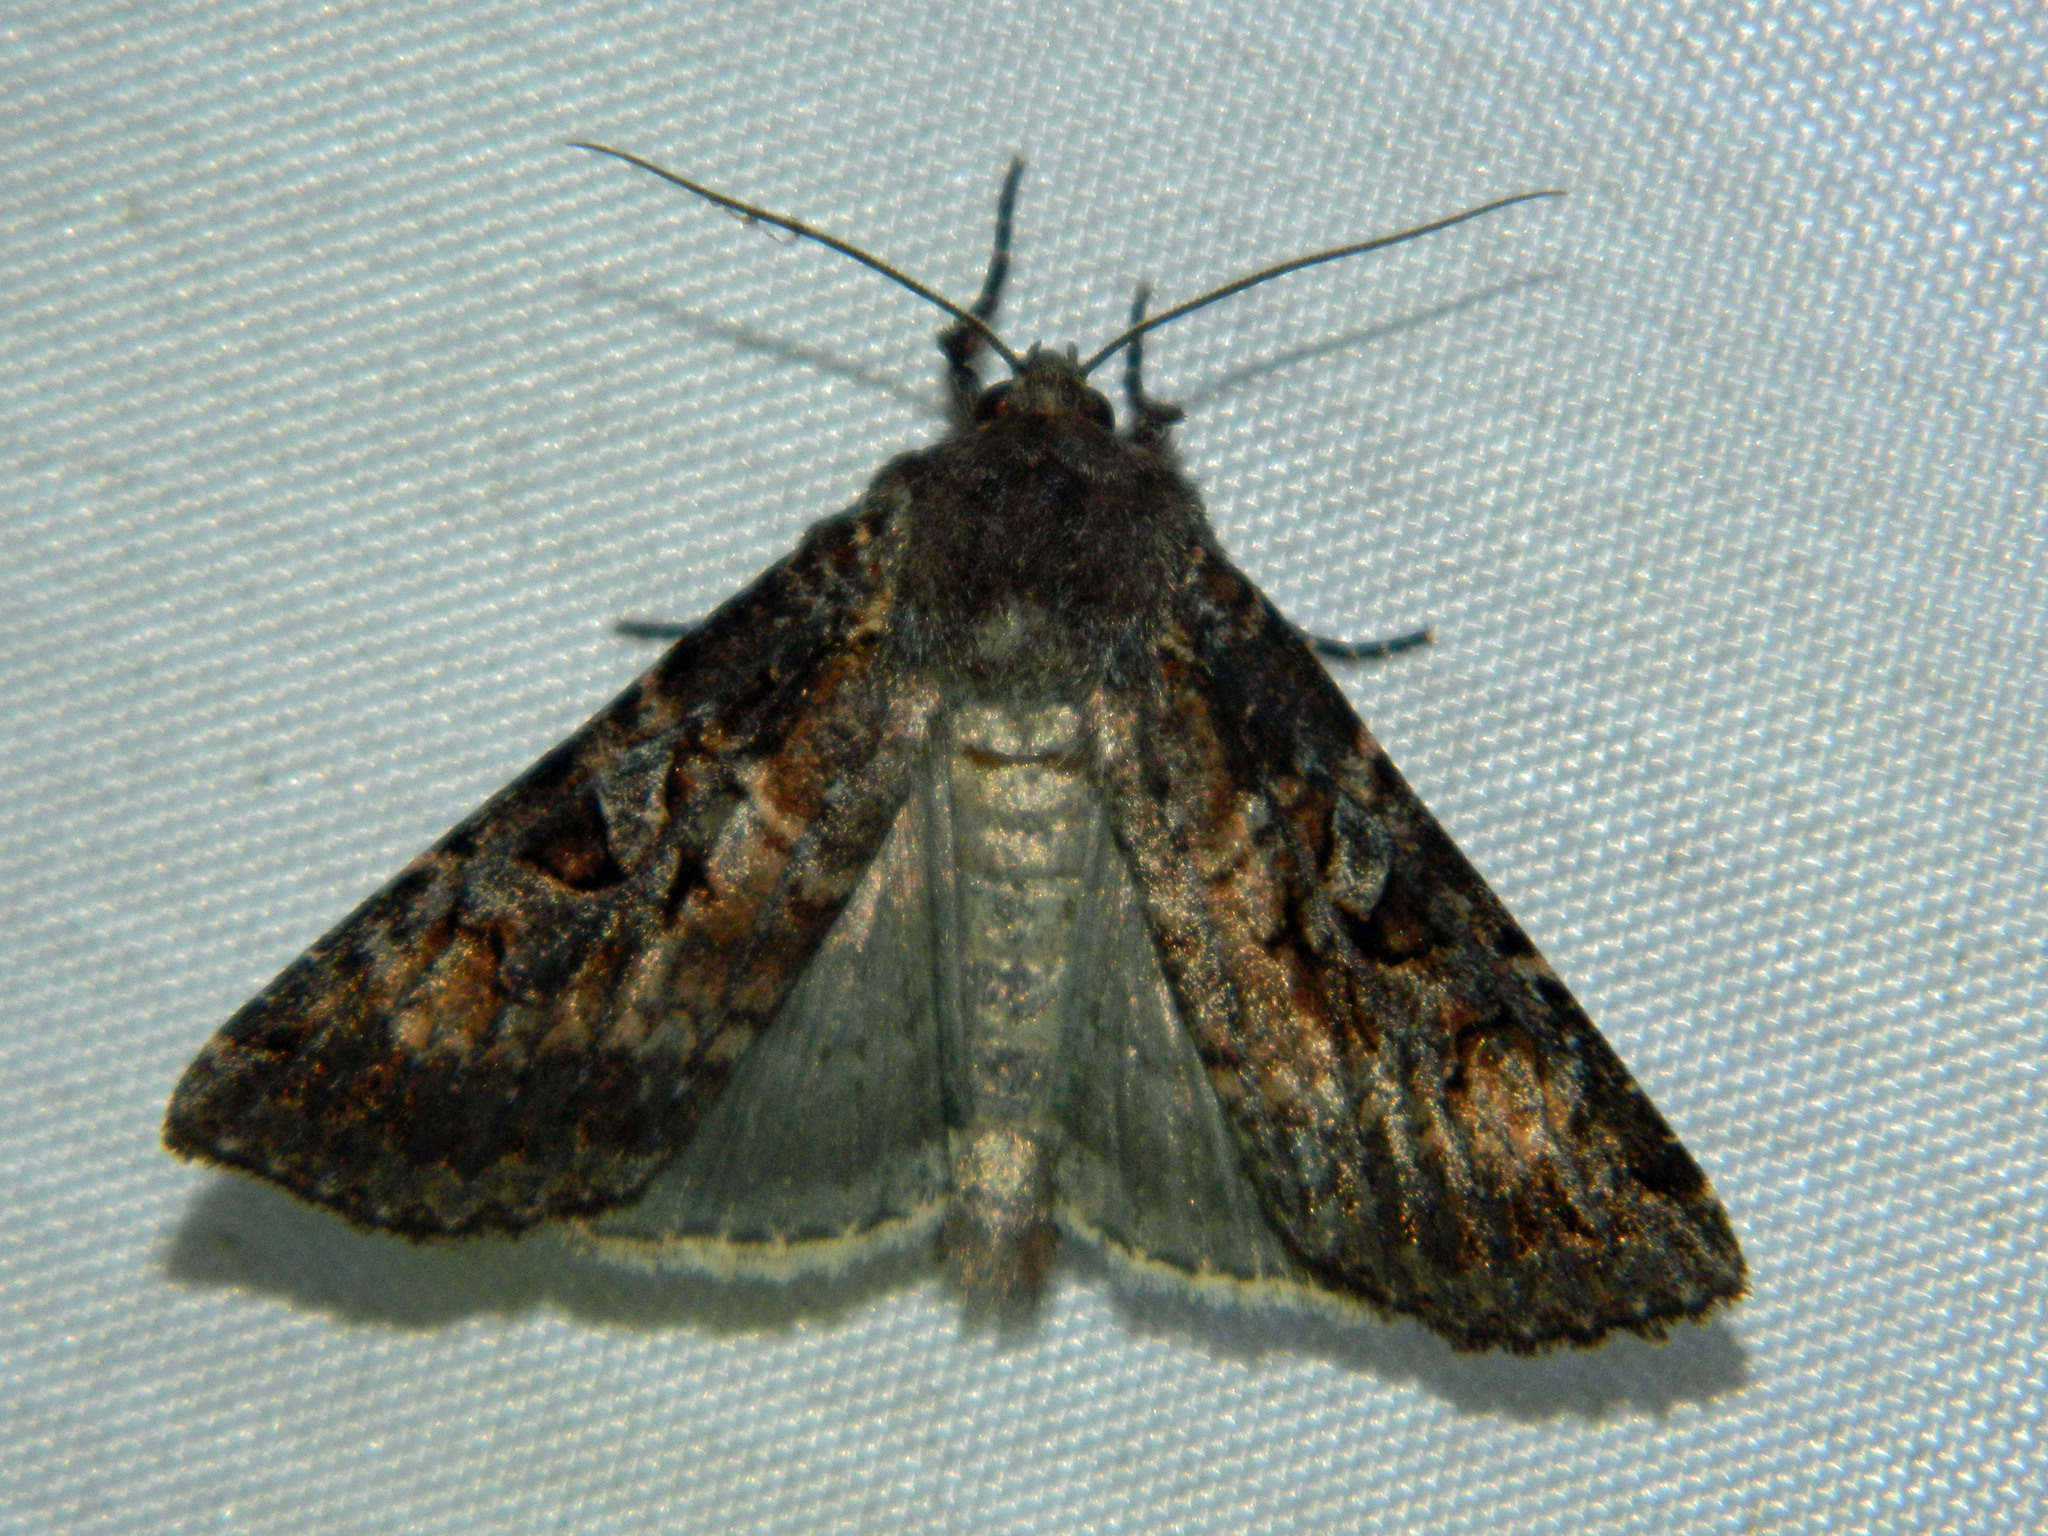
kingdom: Animalia
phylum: Arthropoda
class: Insecta
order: Lepidoptera
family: Noctuidae
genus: Eurois
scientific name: Eurois astricta
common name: Great brown dart
